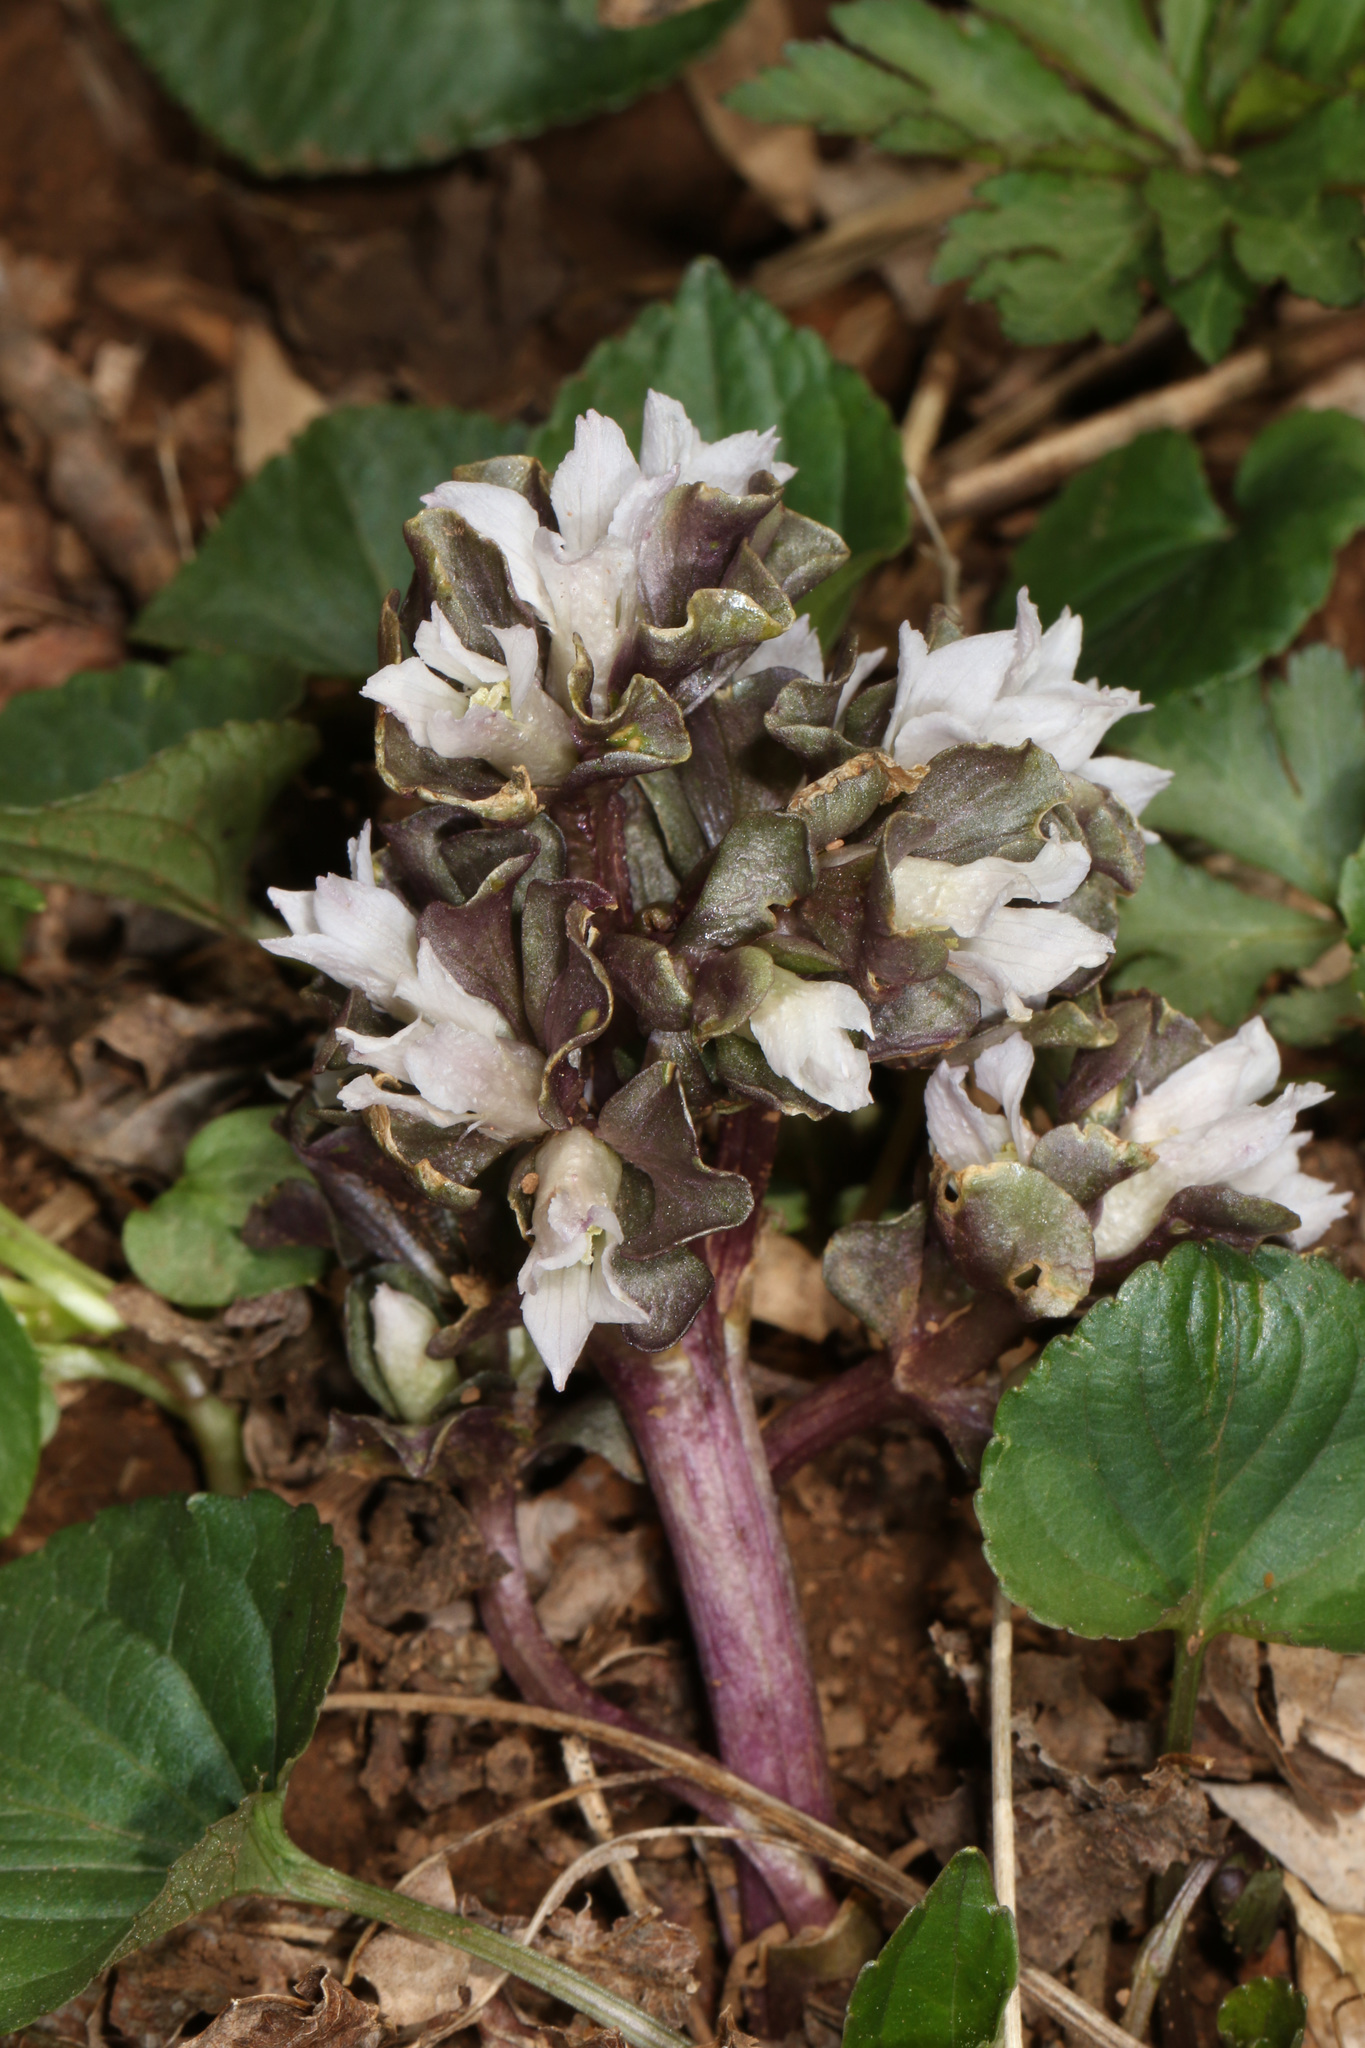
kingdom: Plantae
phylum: Tracheophyta
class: Magnoliopsida
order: Gentianales
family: Gentianaceae
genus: Obolaria
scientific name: Obolaria virginica
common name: Pennywort
